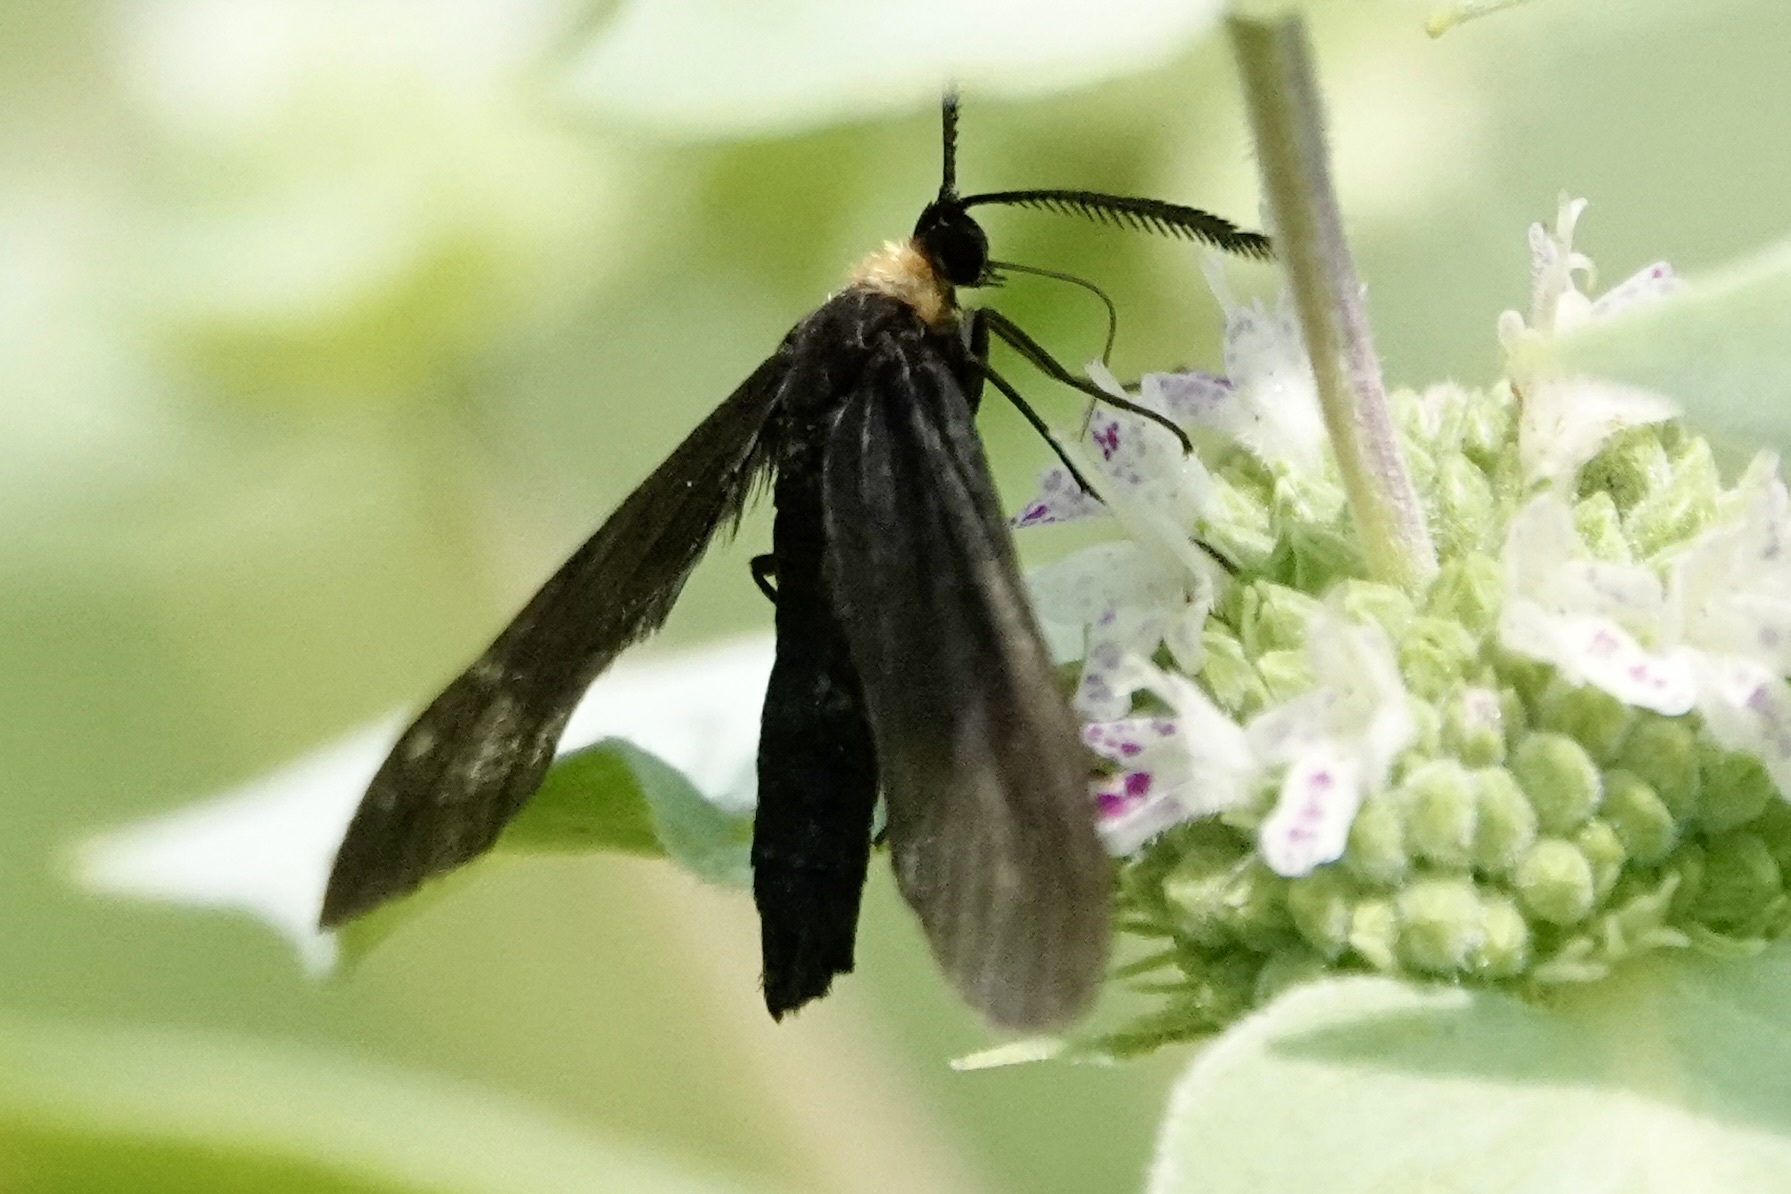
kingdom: Animalia
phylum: Arthropoda
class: Insecta
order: Lepidoptera
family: Zygaenidae
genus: Harrisina
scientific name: Harrisina americana
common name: Grapeleaf skeletonizer moth
